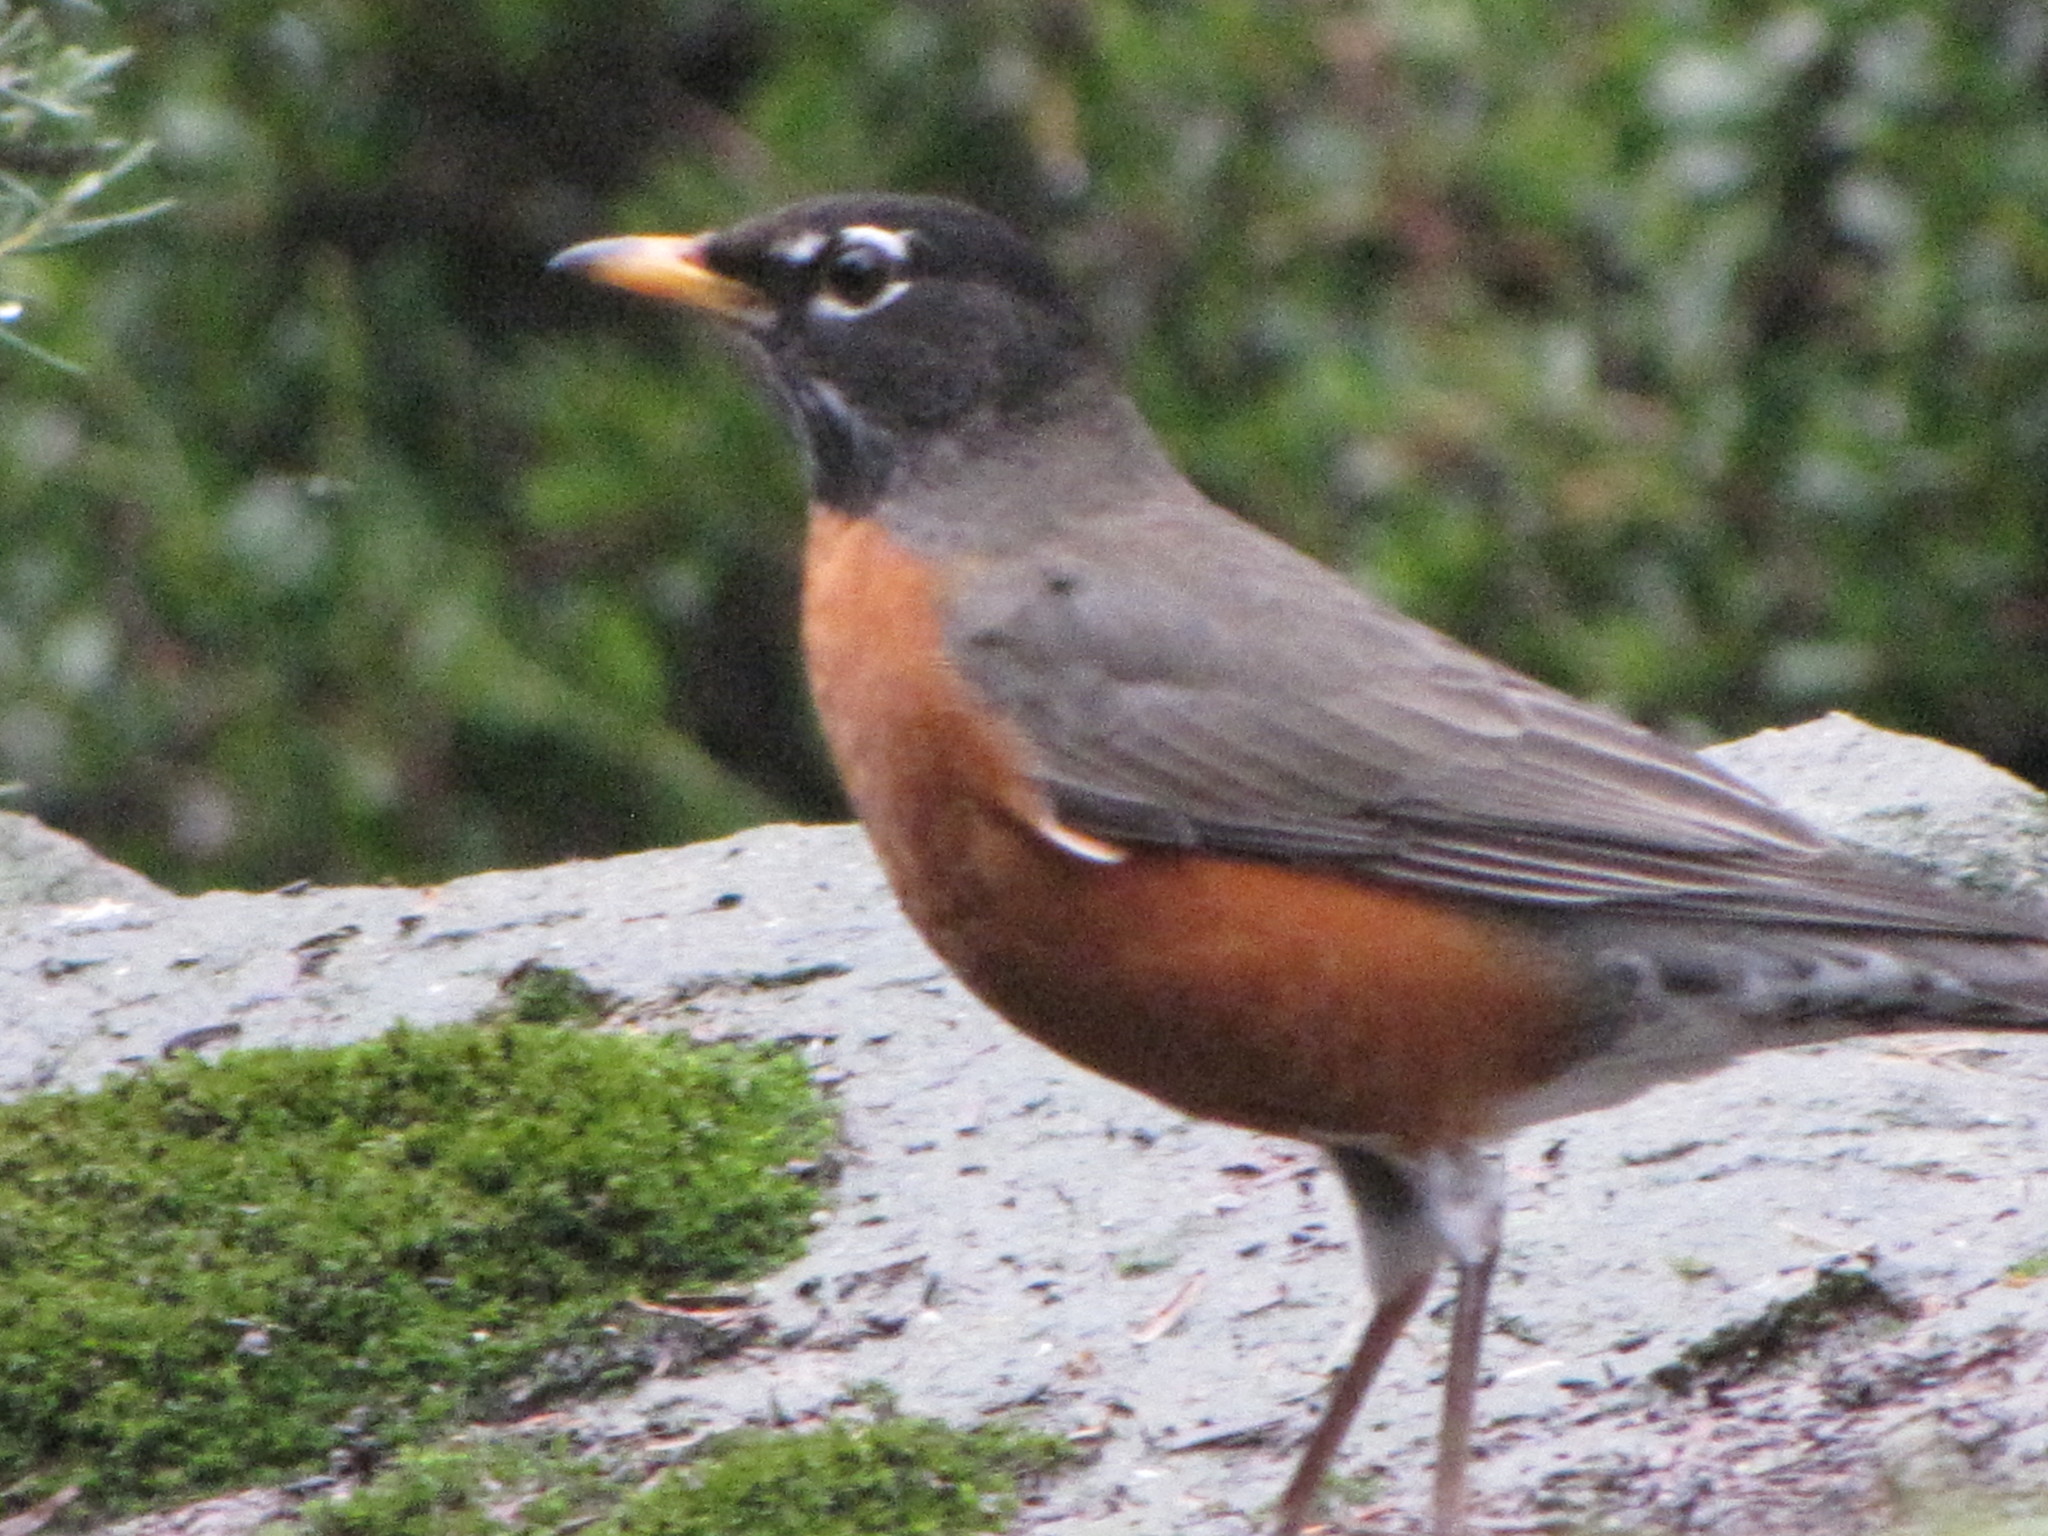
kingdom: Animalia
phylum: Chordata
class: Aves
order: Passeriformes
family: Turdidae
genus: Turdus
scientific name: Turdus migratorius
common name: American robin
